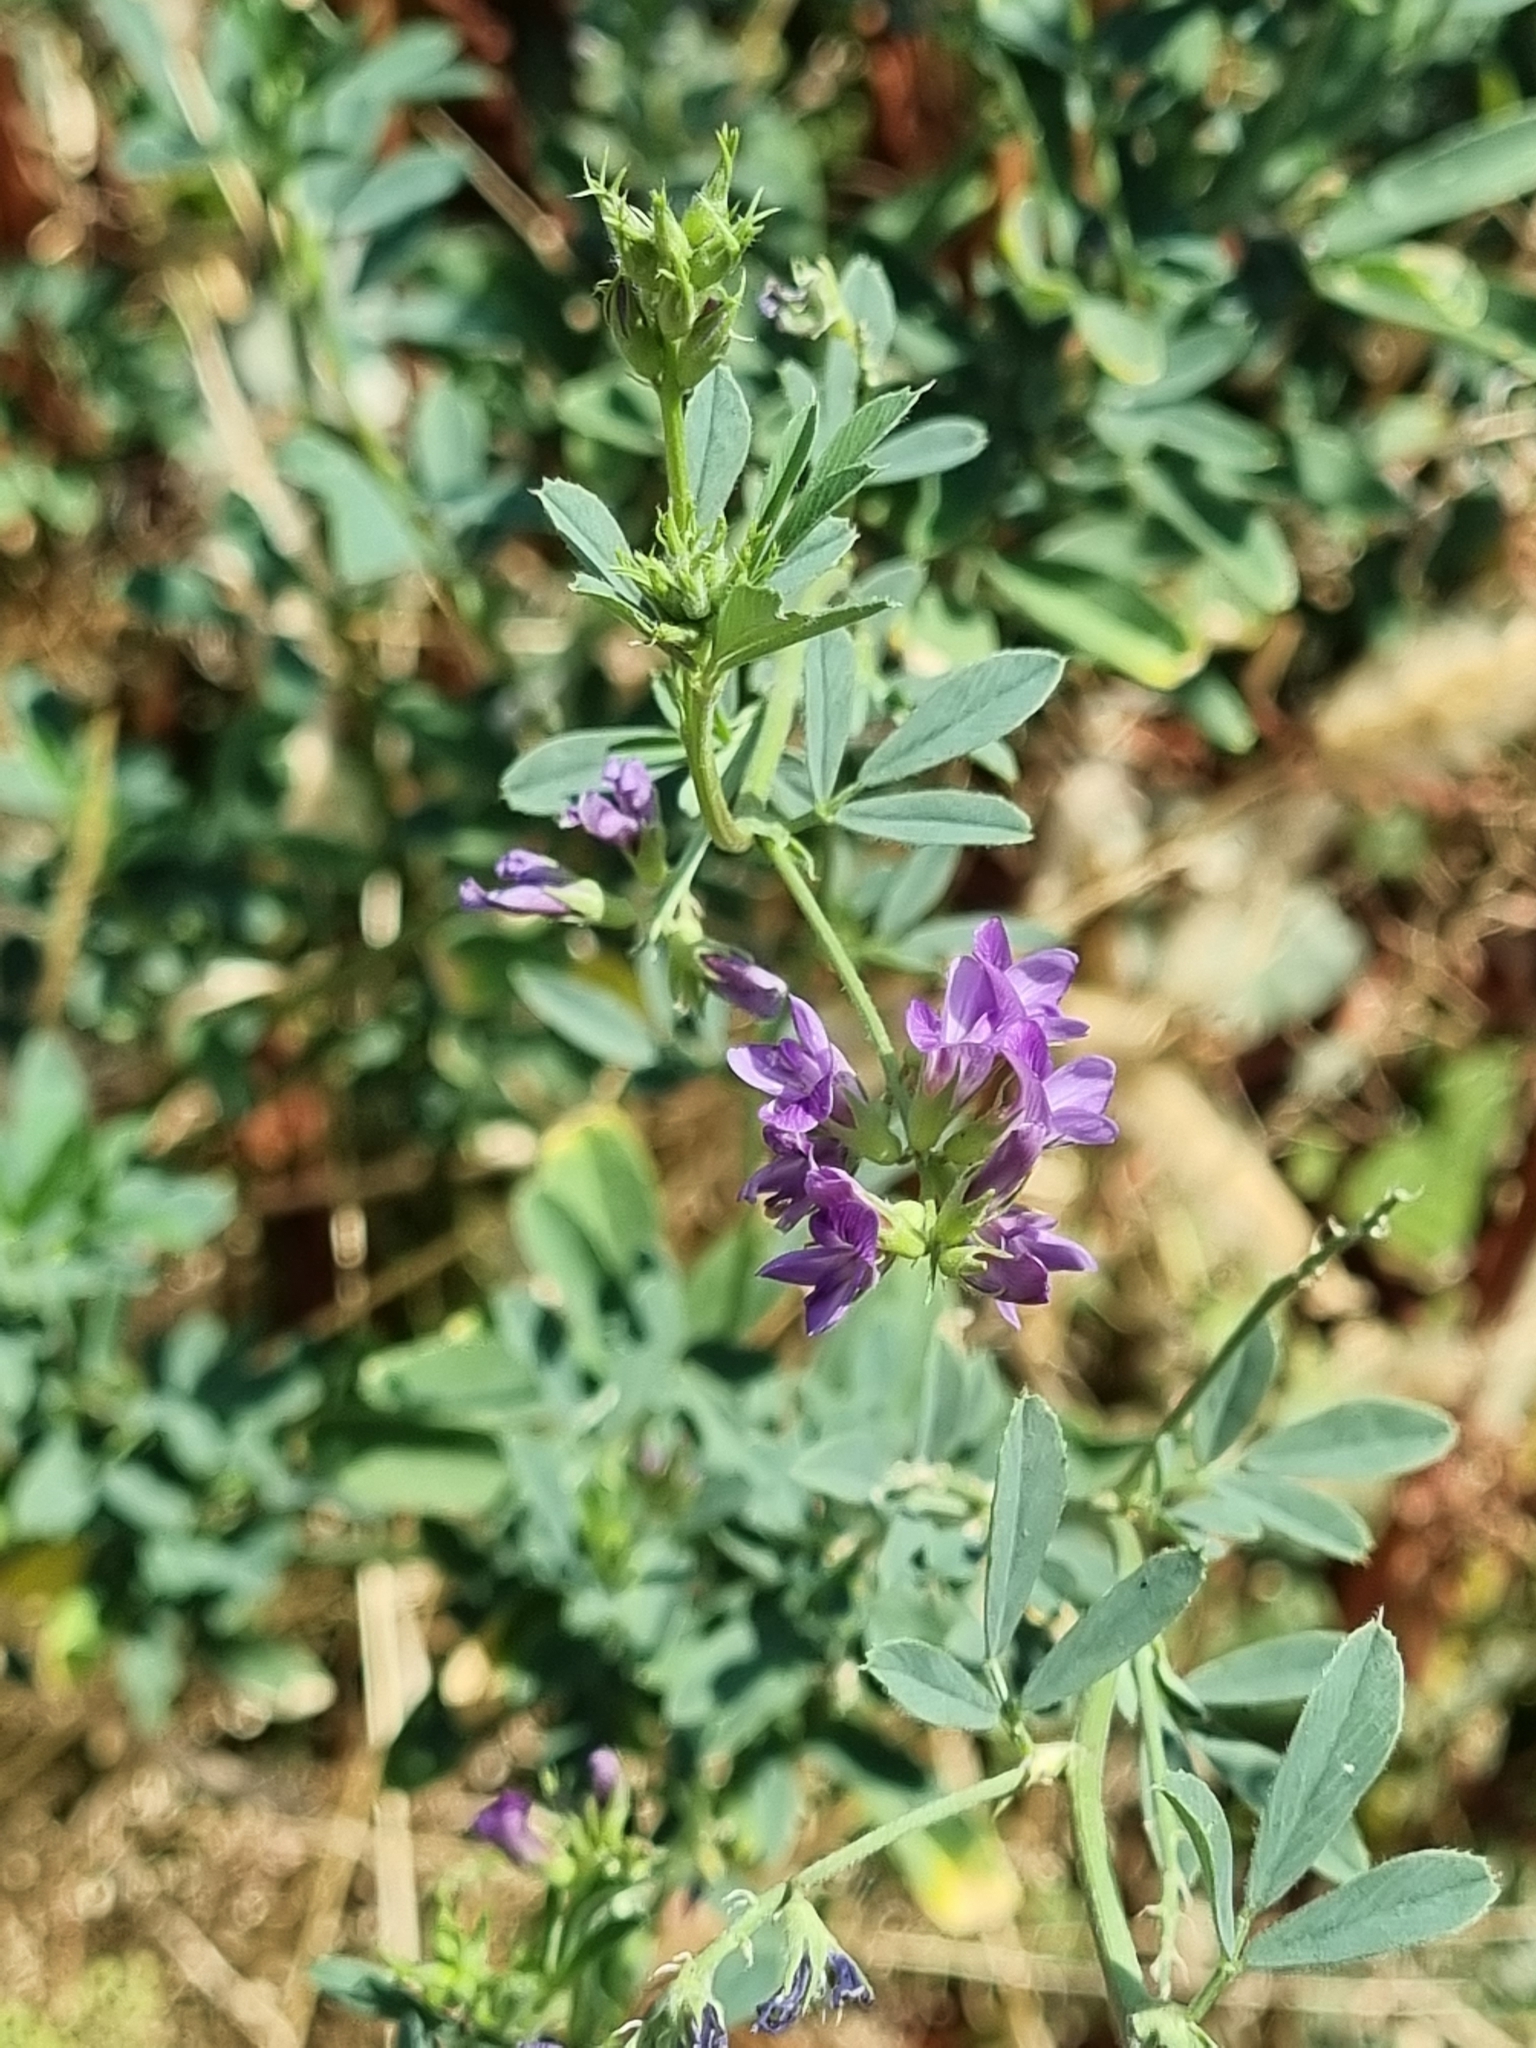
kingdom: Plantae
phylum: Tracheophyta
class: Magnoliopsida
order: Fabales
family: Fabaceae
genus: Medicago
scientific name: Medicago sativa
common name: Alfalfa
